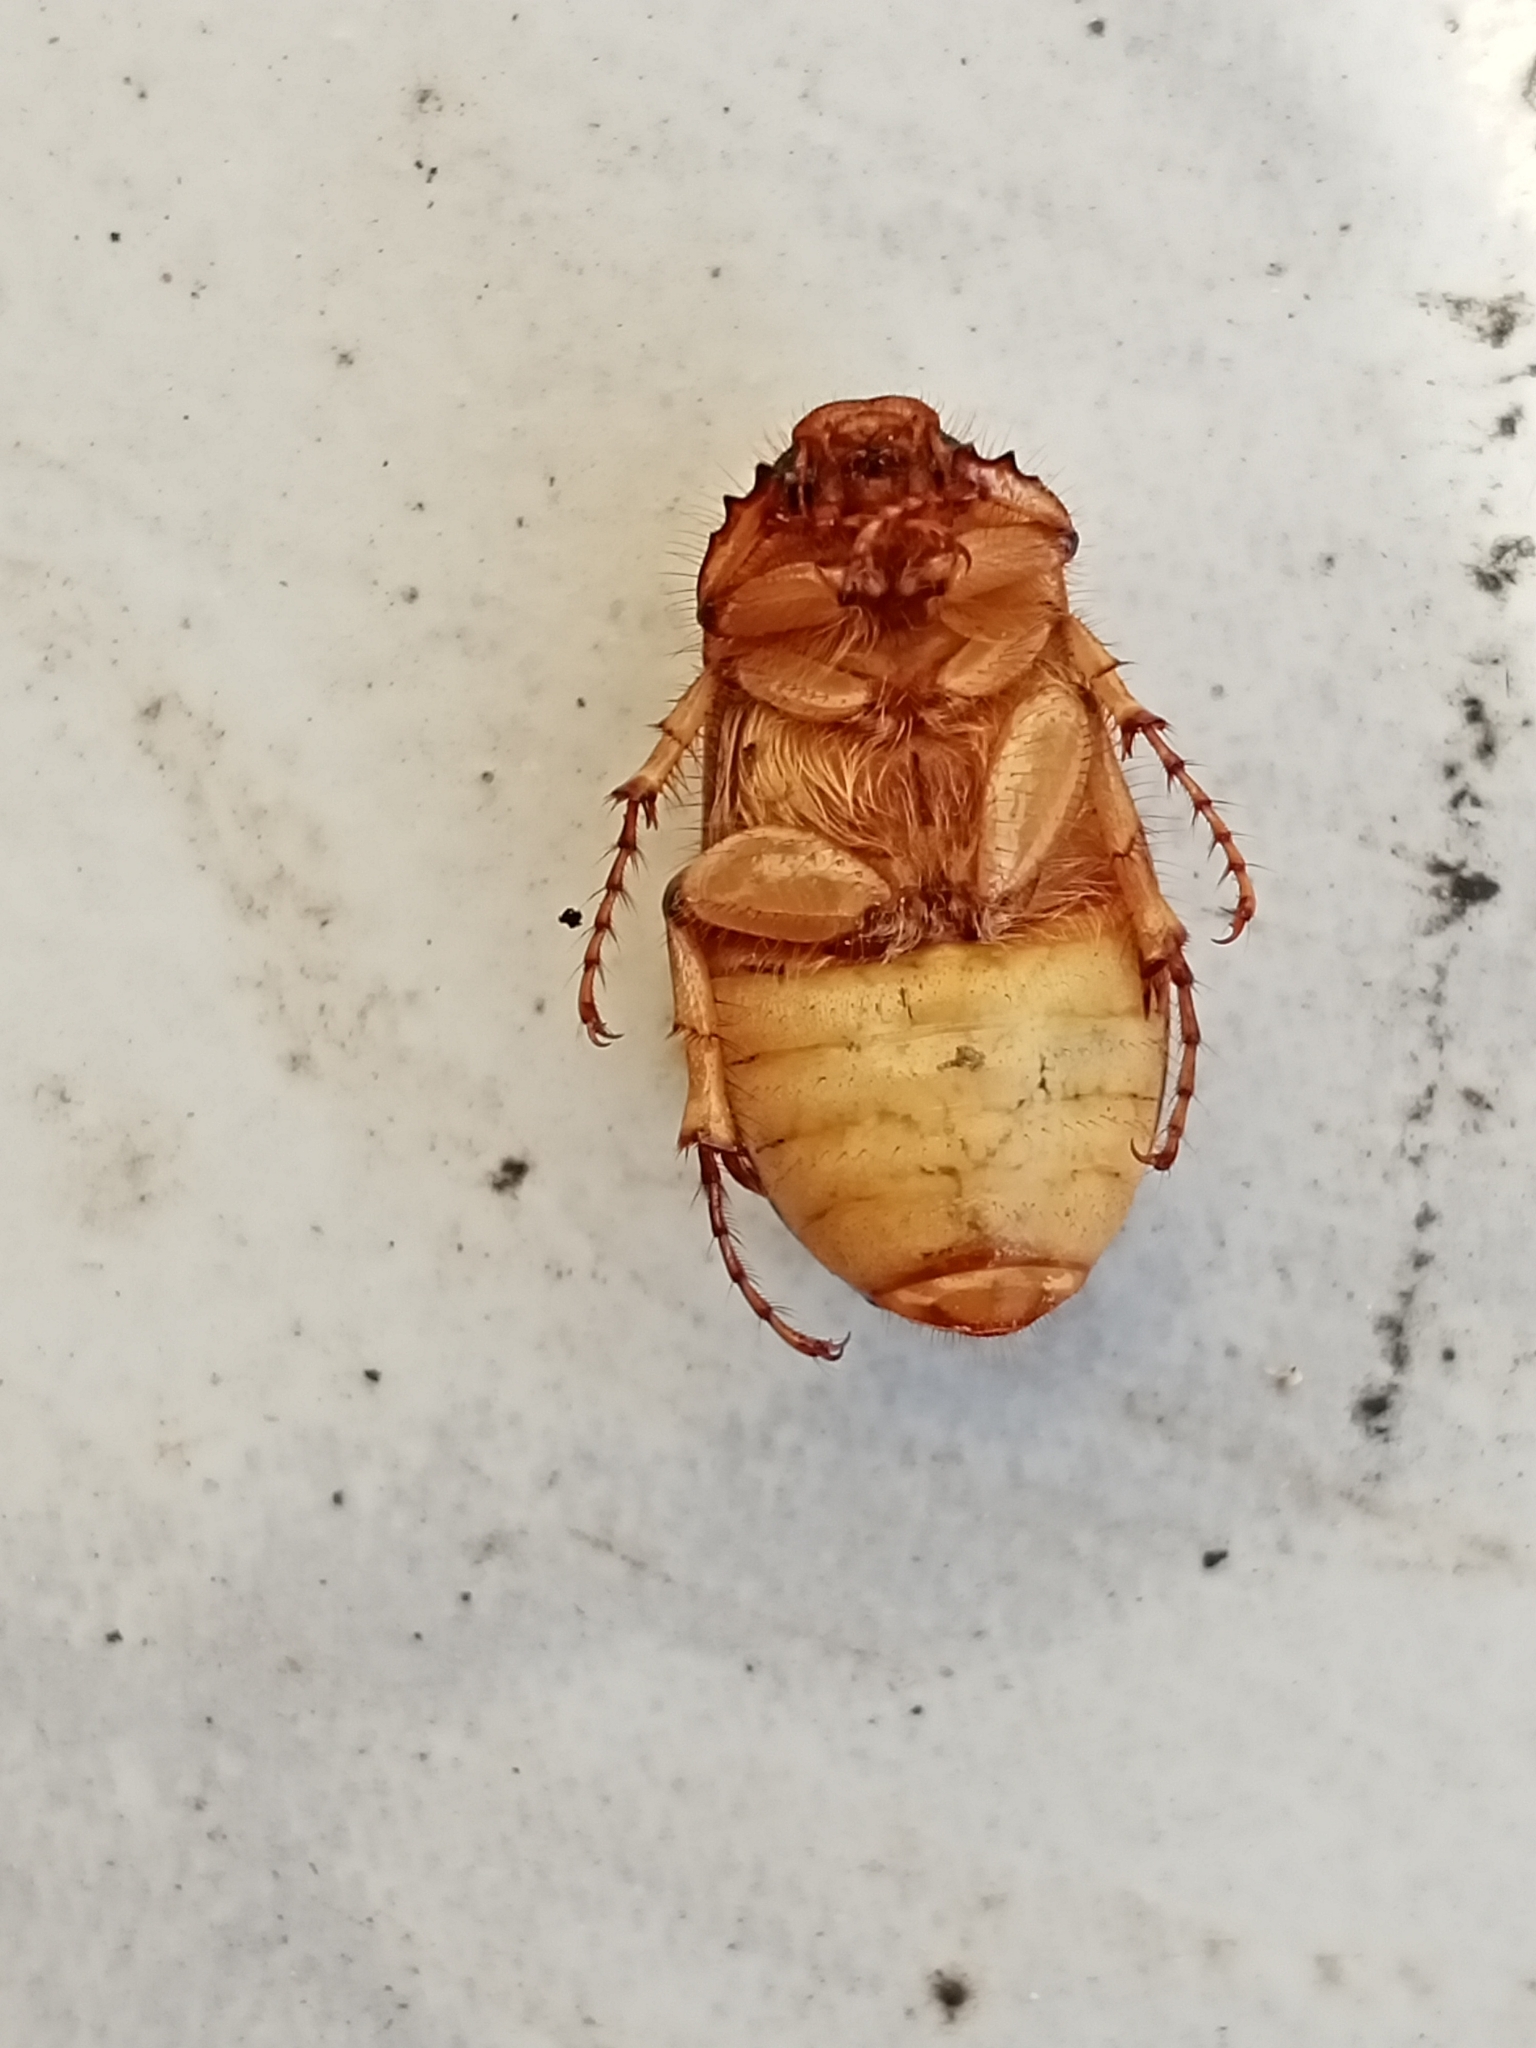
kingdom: Animalia
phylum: Arthropoda
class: Insecta
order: Coleoptera
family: Scarabaeidae
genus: Rhizotrogus
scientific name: Rhizotrogus aestivus
